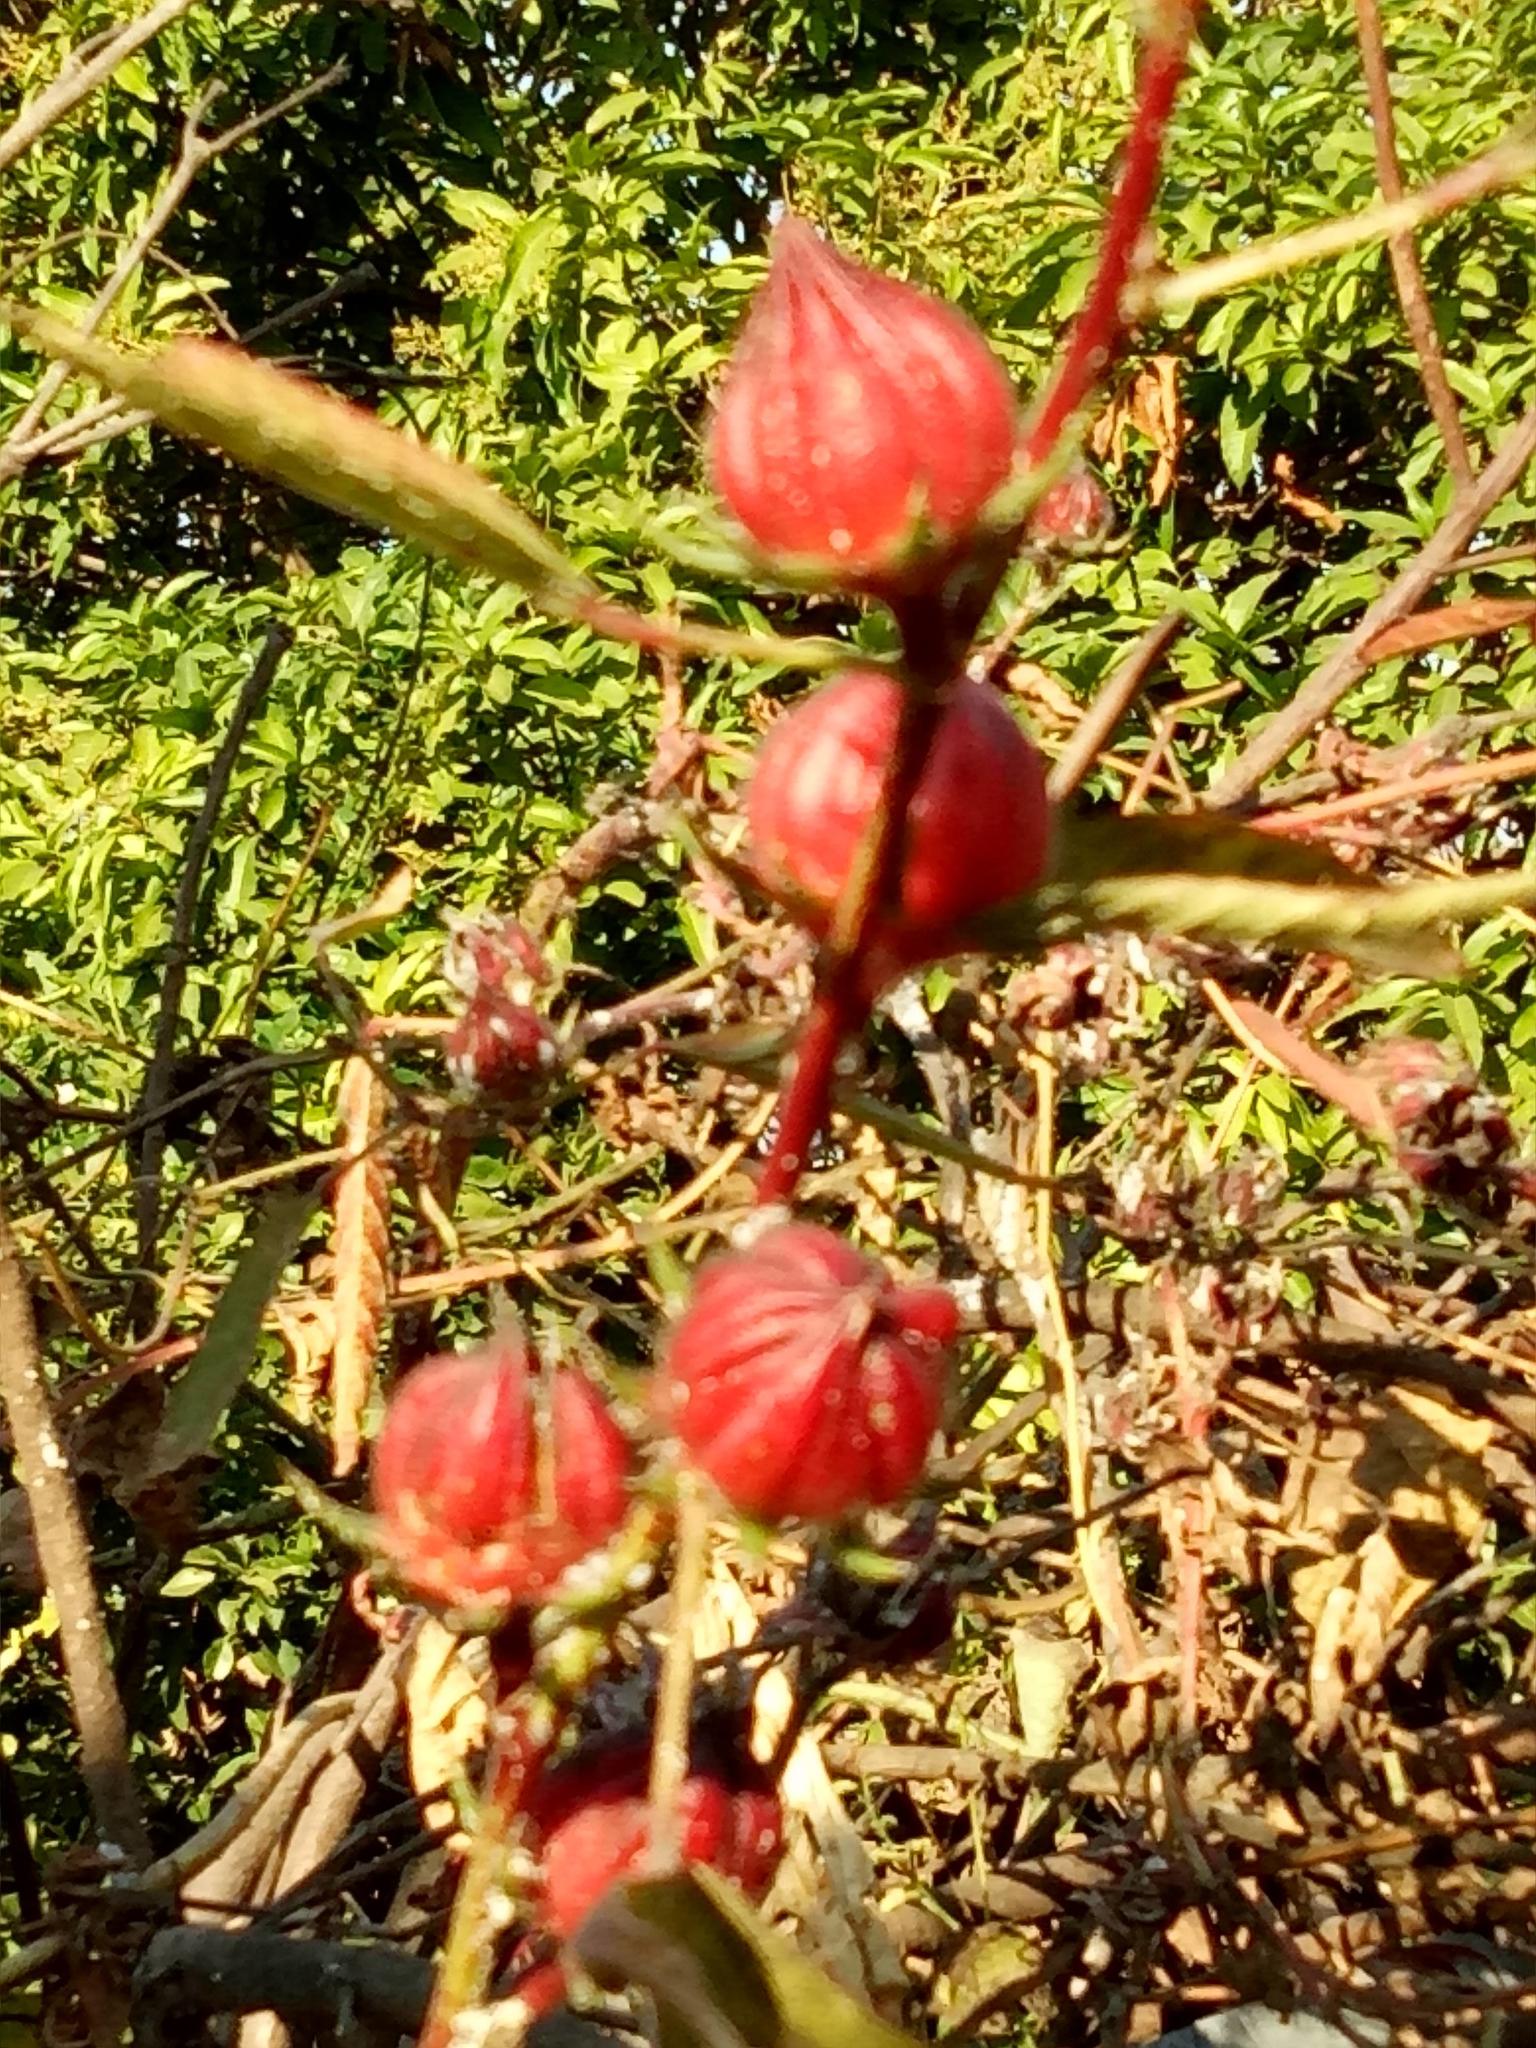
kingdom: Plantae
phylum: Tracheophyta
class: Magnoliopsida
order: Malvales
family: Malvaceae
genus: Hibiscus
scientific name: Hibiscus sabdariffa
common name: Roselle
